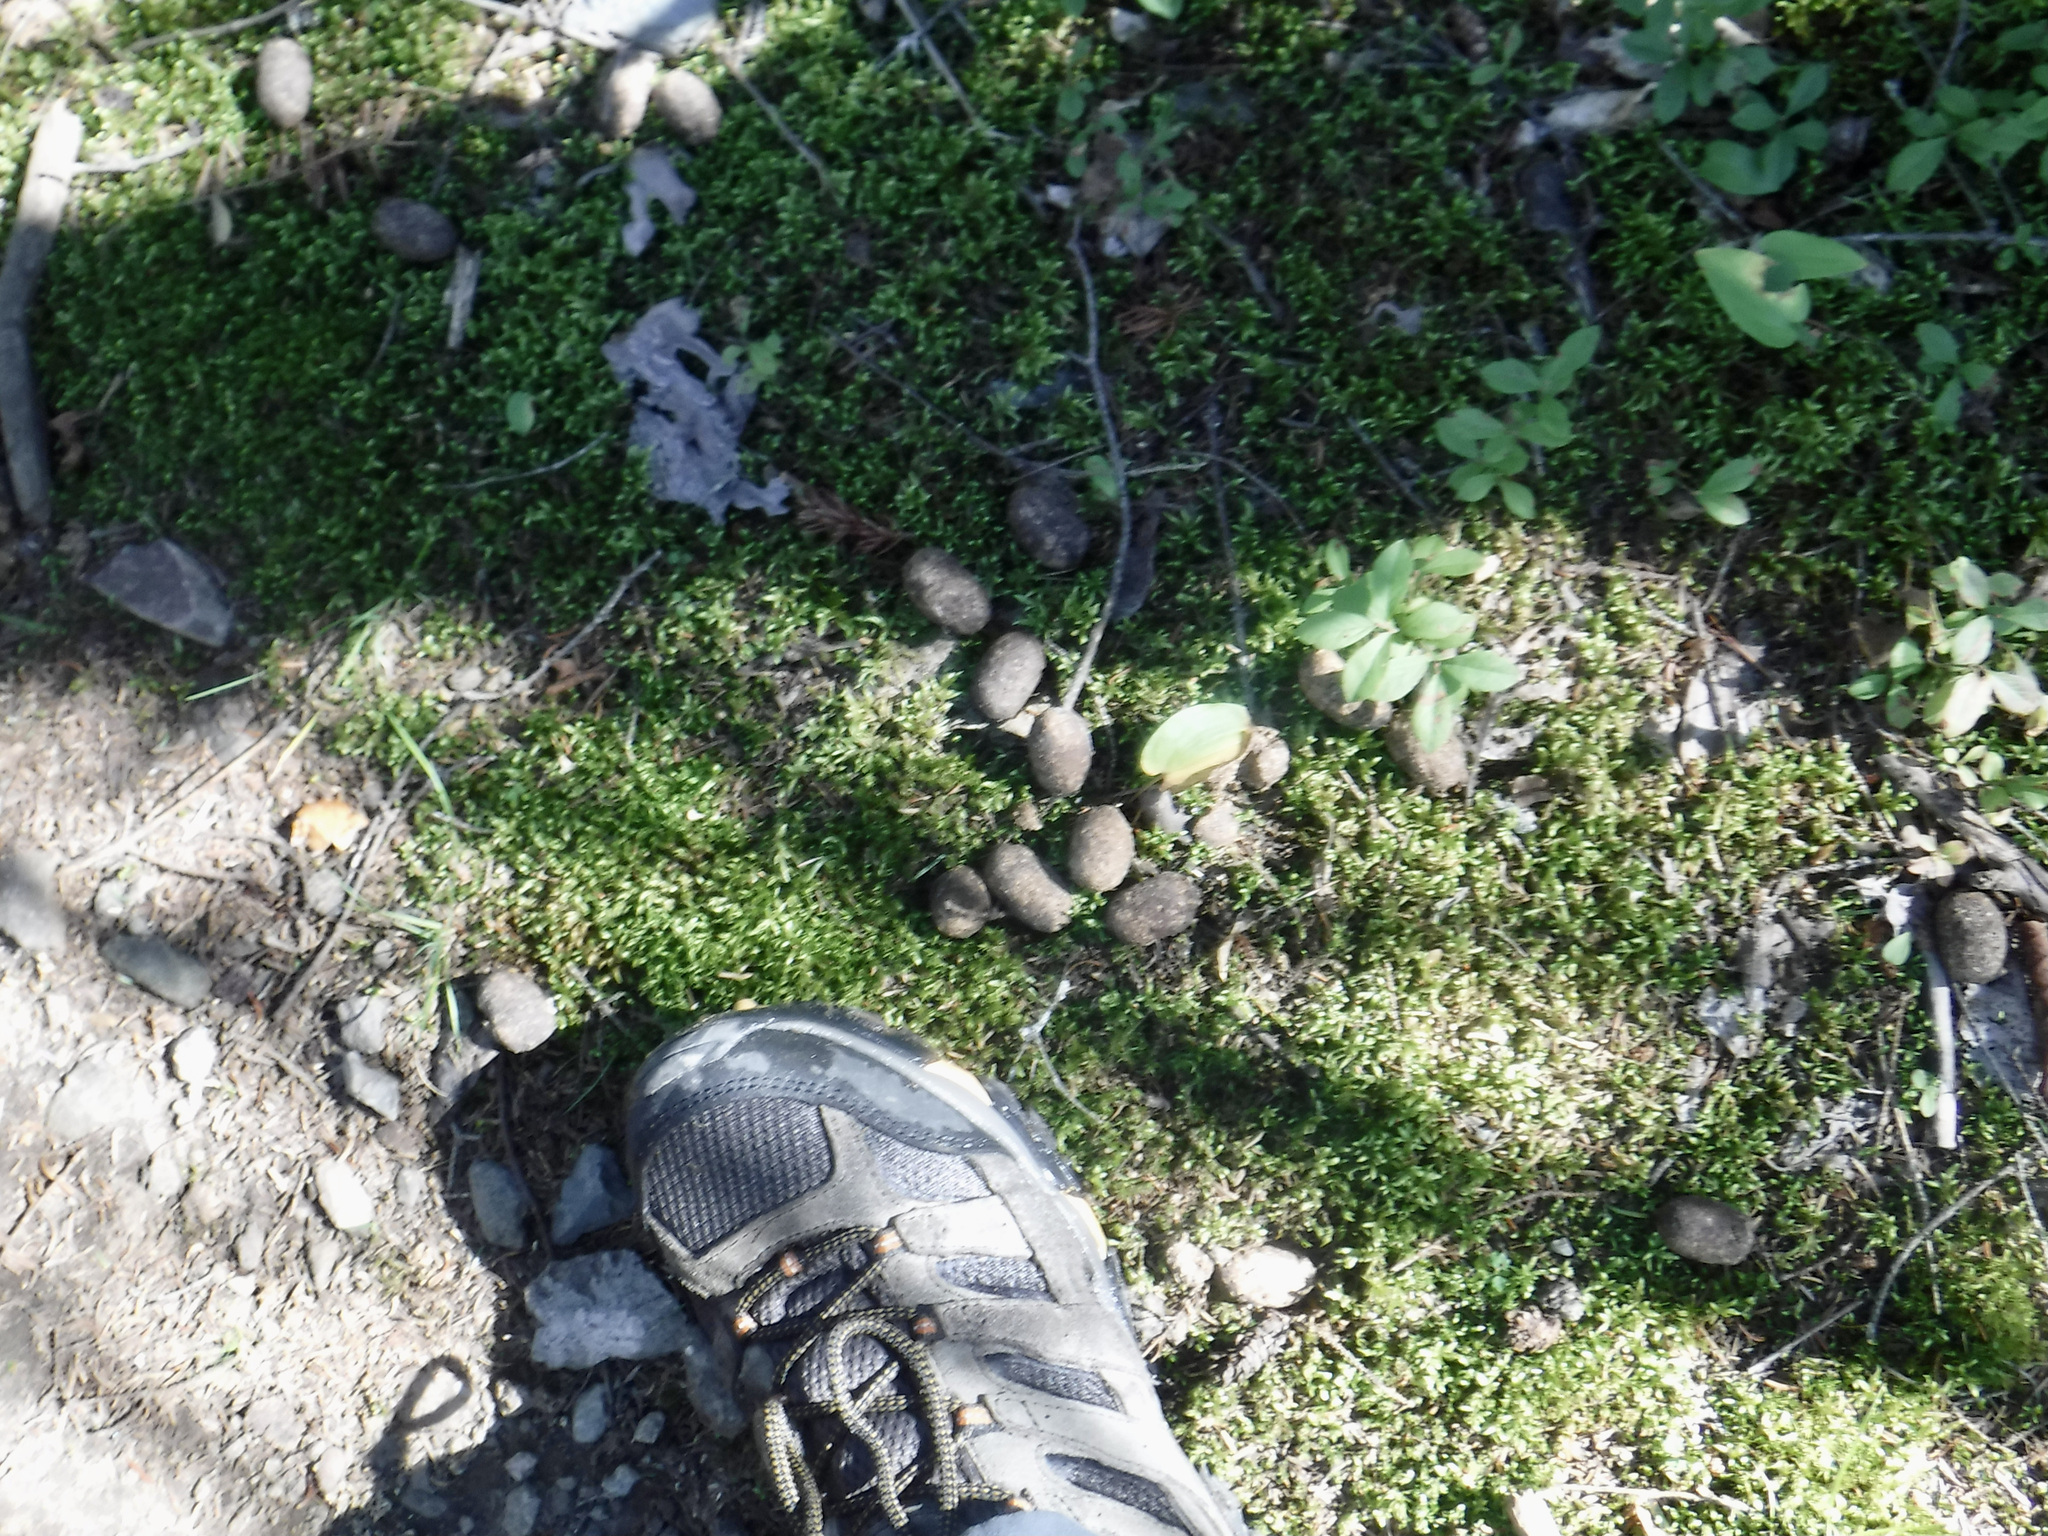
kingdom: Animalia
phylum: Chordata
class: Mammalia
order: Artiodactyla
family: Cervidae
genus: Alces
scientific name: Alces alces
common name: Moose
